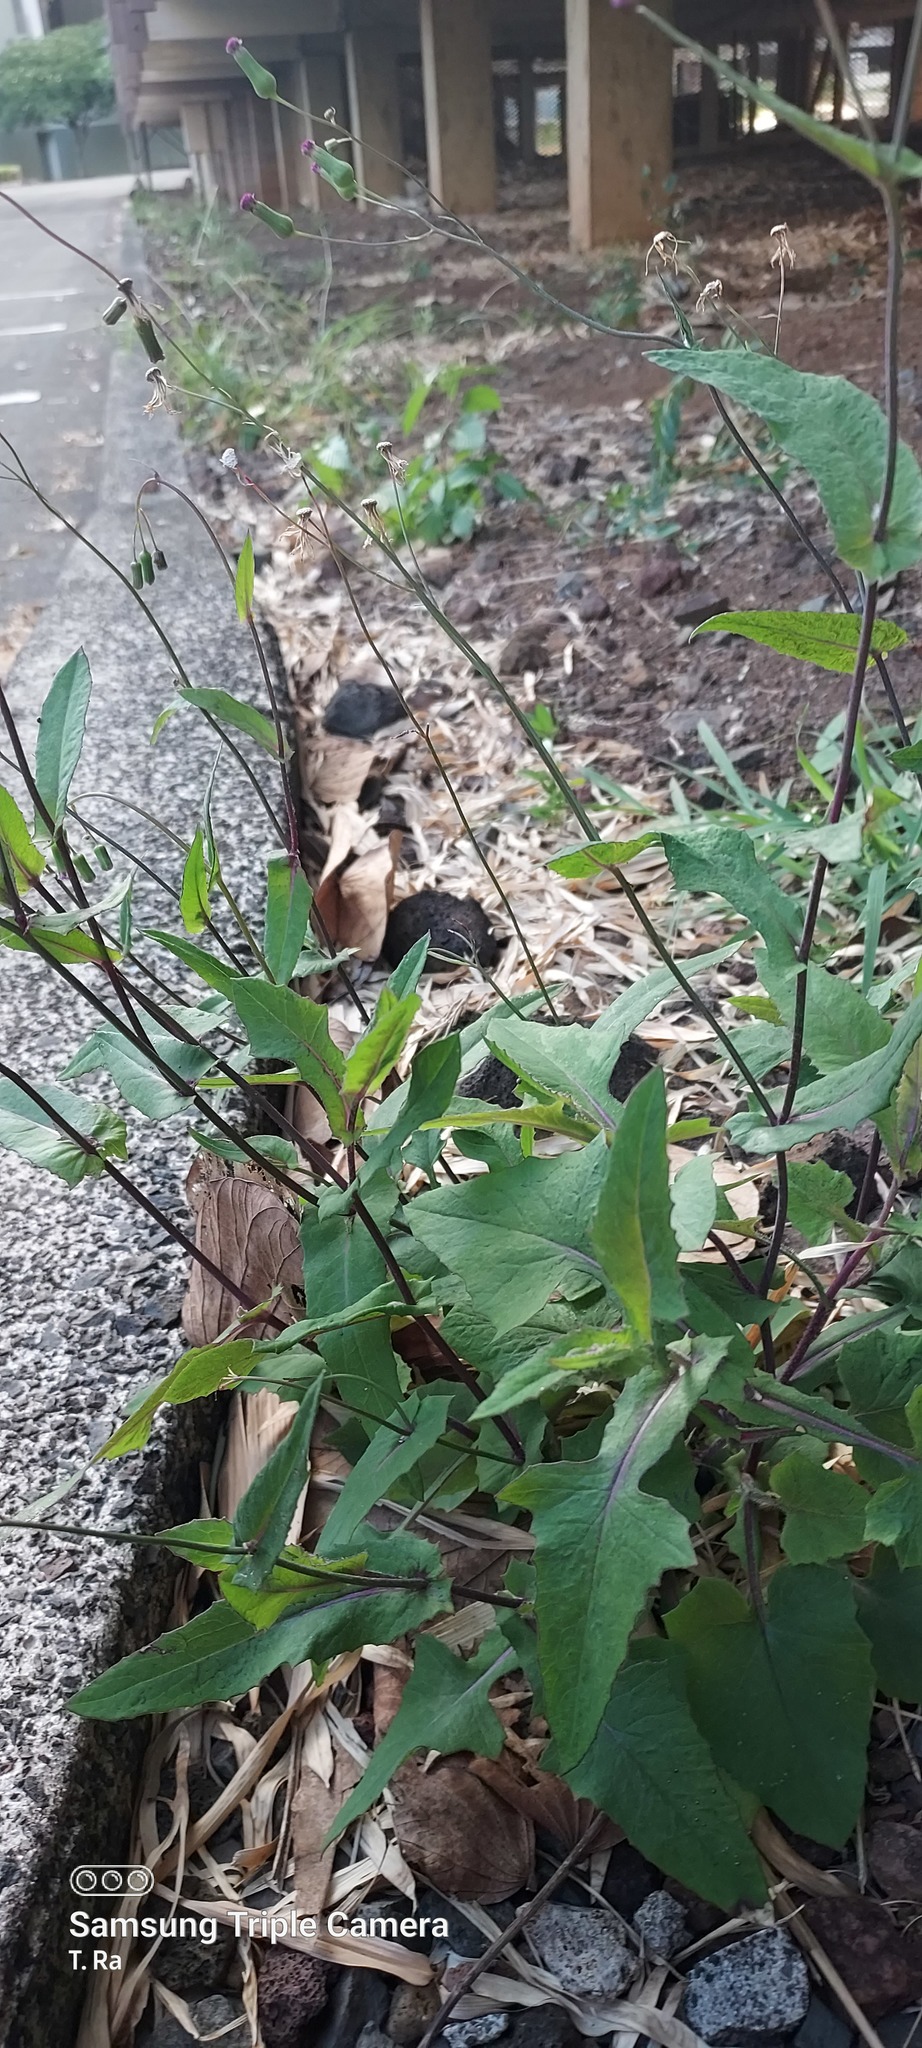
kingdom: Plantae
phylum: Tracheophyta
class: Magnoliopsida
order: Asterales
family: Asteraceae
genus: Emilia
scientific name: Emilia sonchifolia
